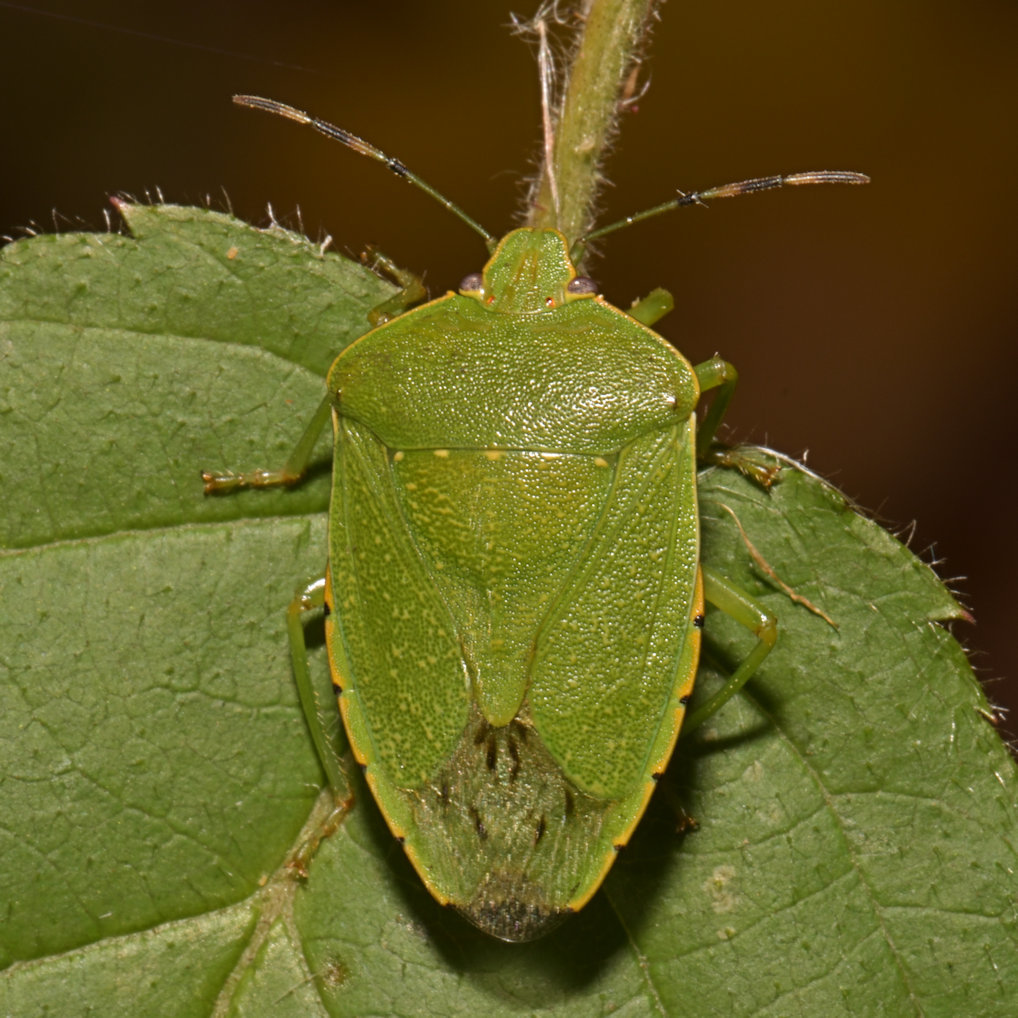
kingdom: Animalia
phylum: Arthropoda
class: Insecta
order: Hemiptera
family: Pentatomidae
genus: Chinavia
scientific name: Chinavia hilaris
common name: Green stink bug
